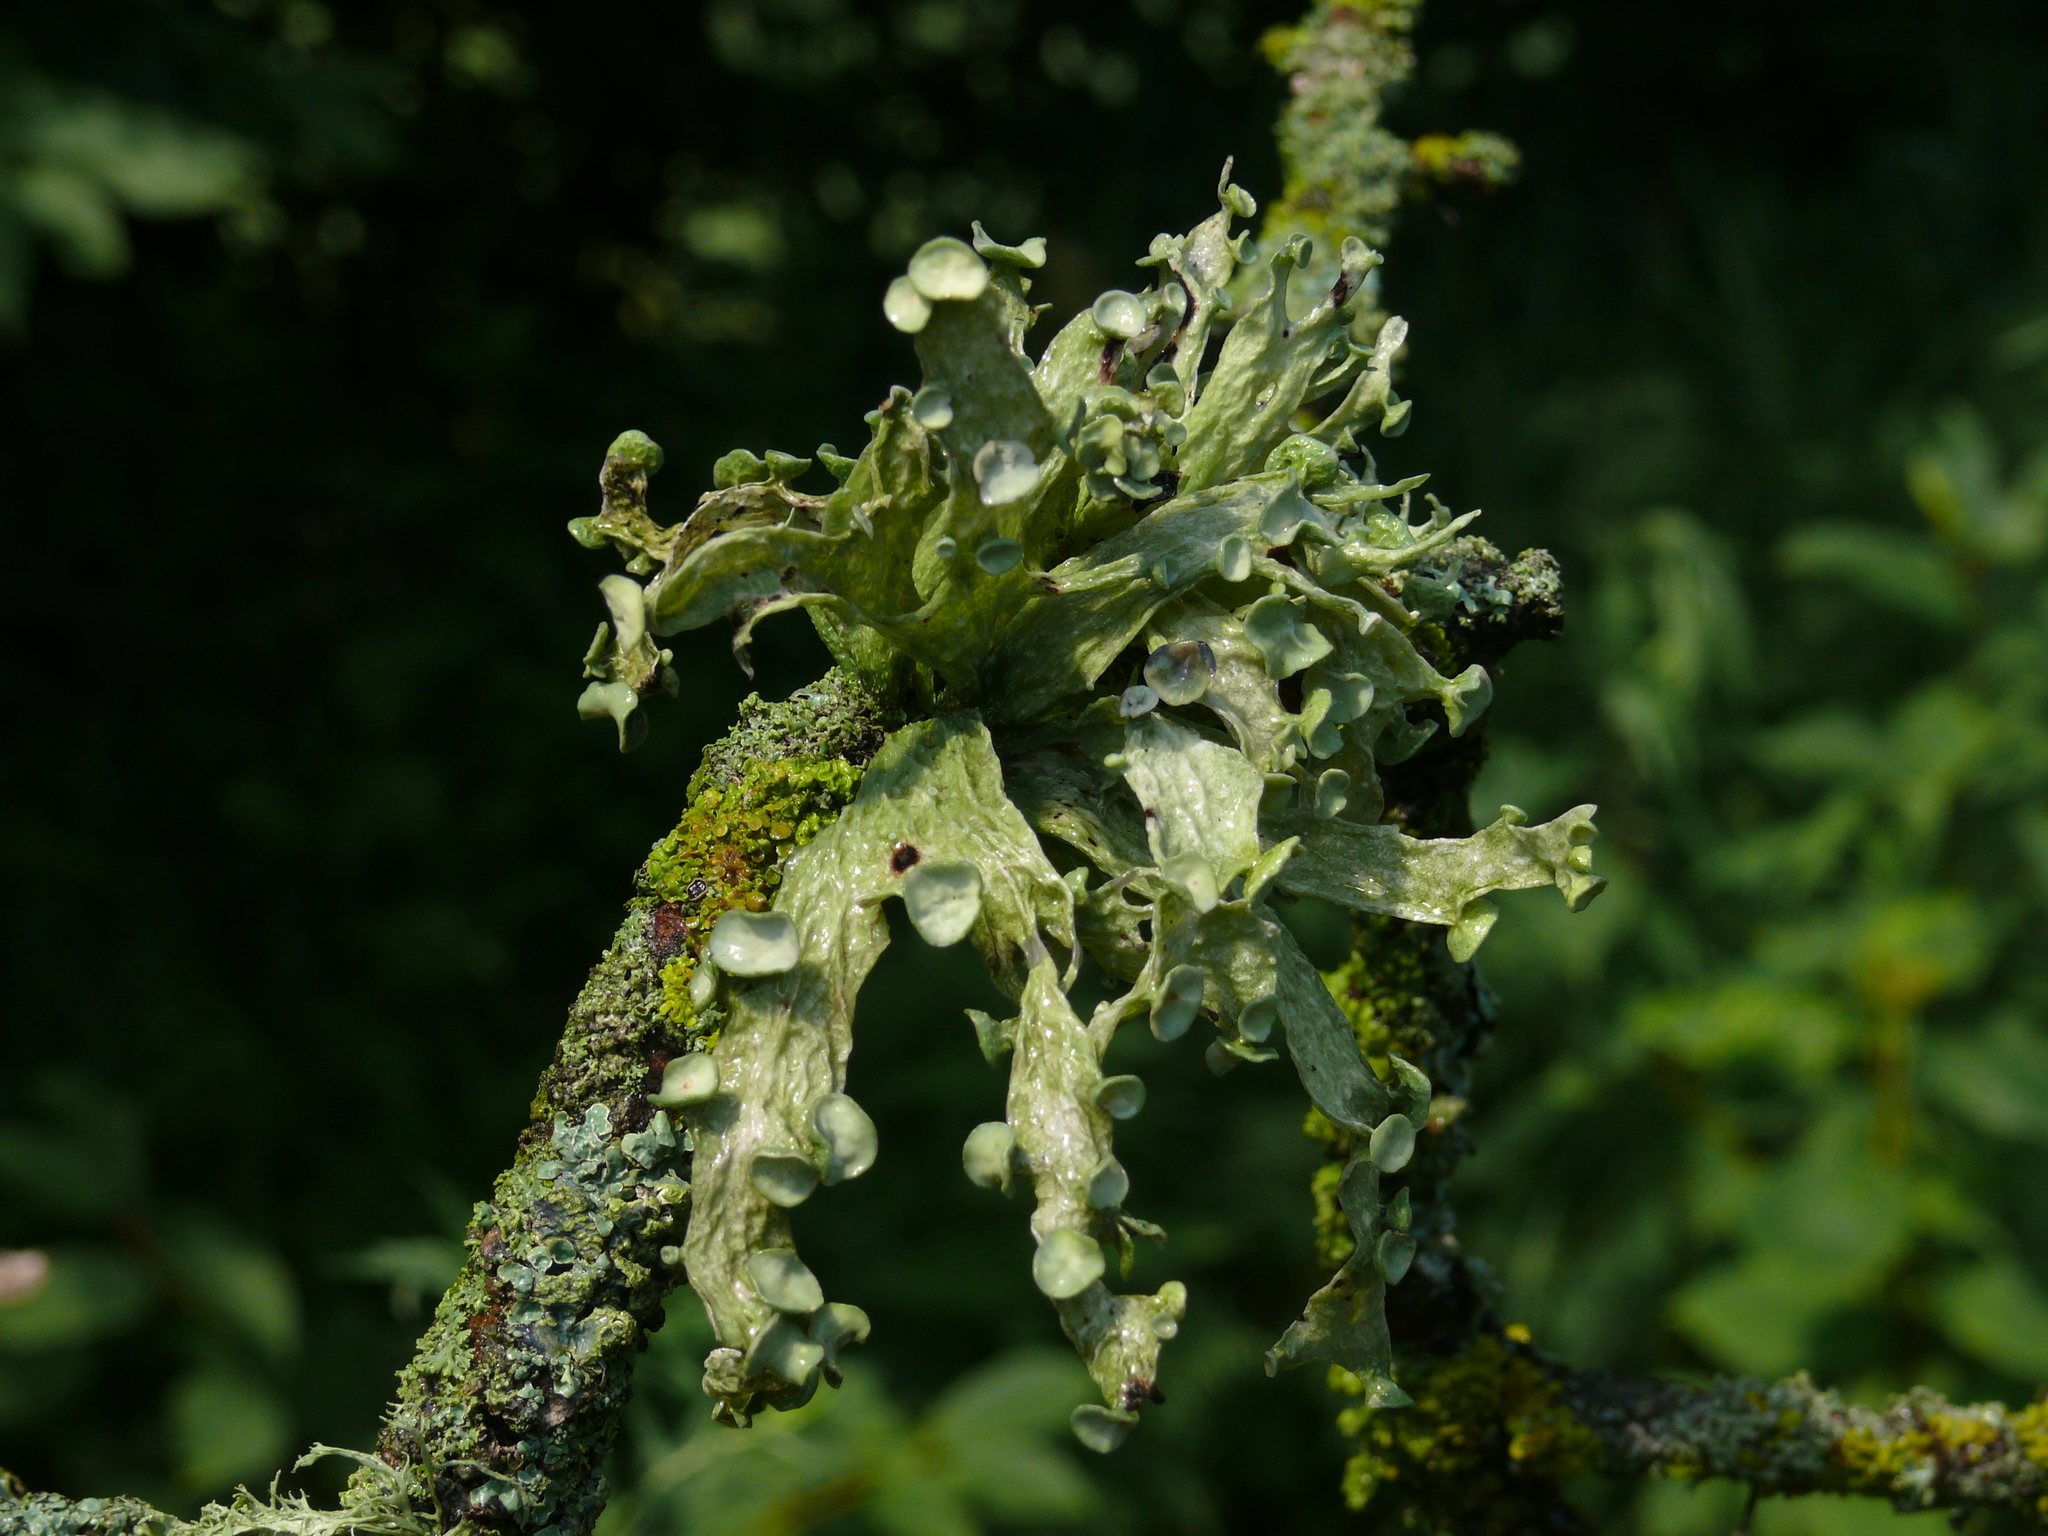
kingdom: Fungi
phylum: Ascomycota
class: Lecanoromycetes
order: Lecanorales
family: Ramalinaceae
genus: Ramalina
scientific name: Ramalina fraxinea
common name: Cartilage lichen
